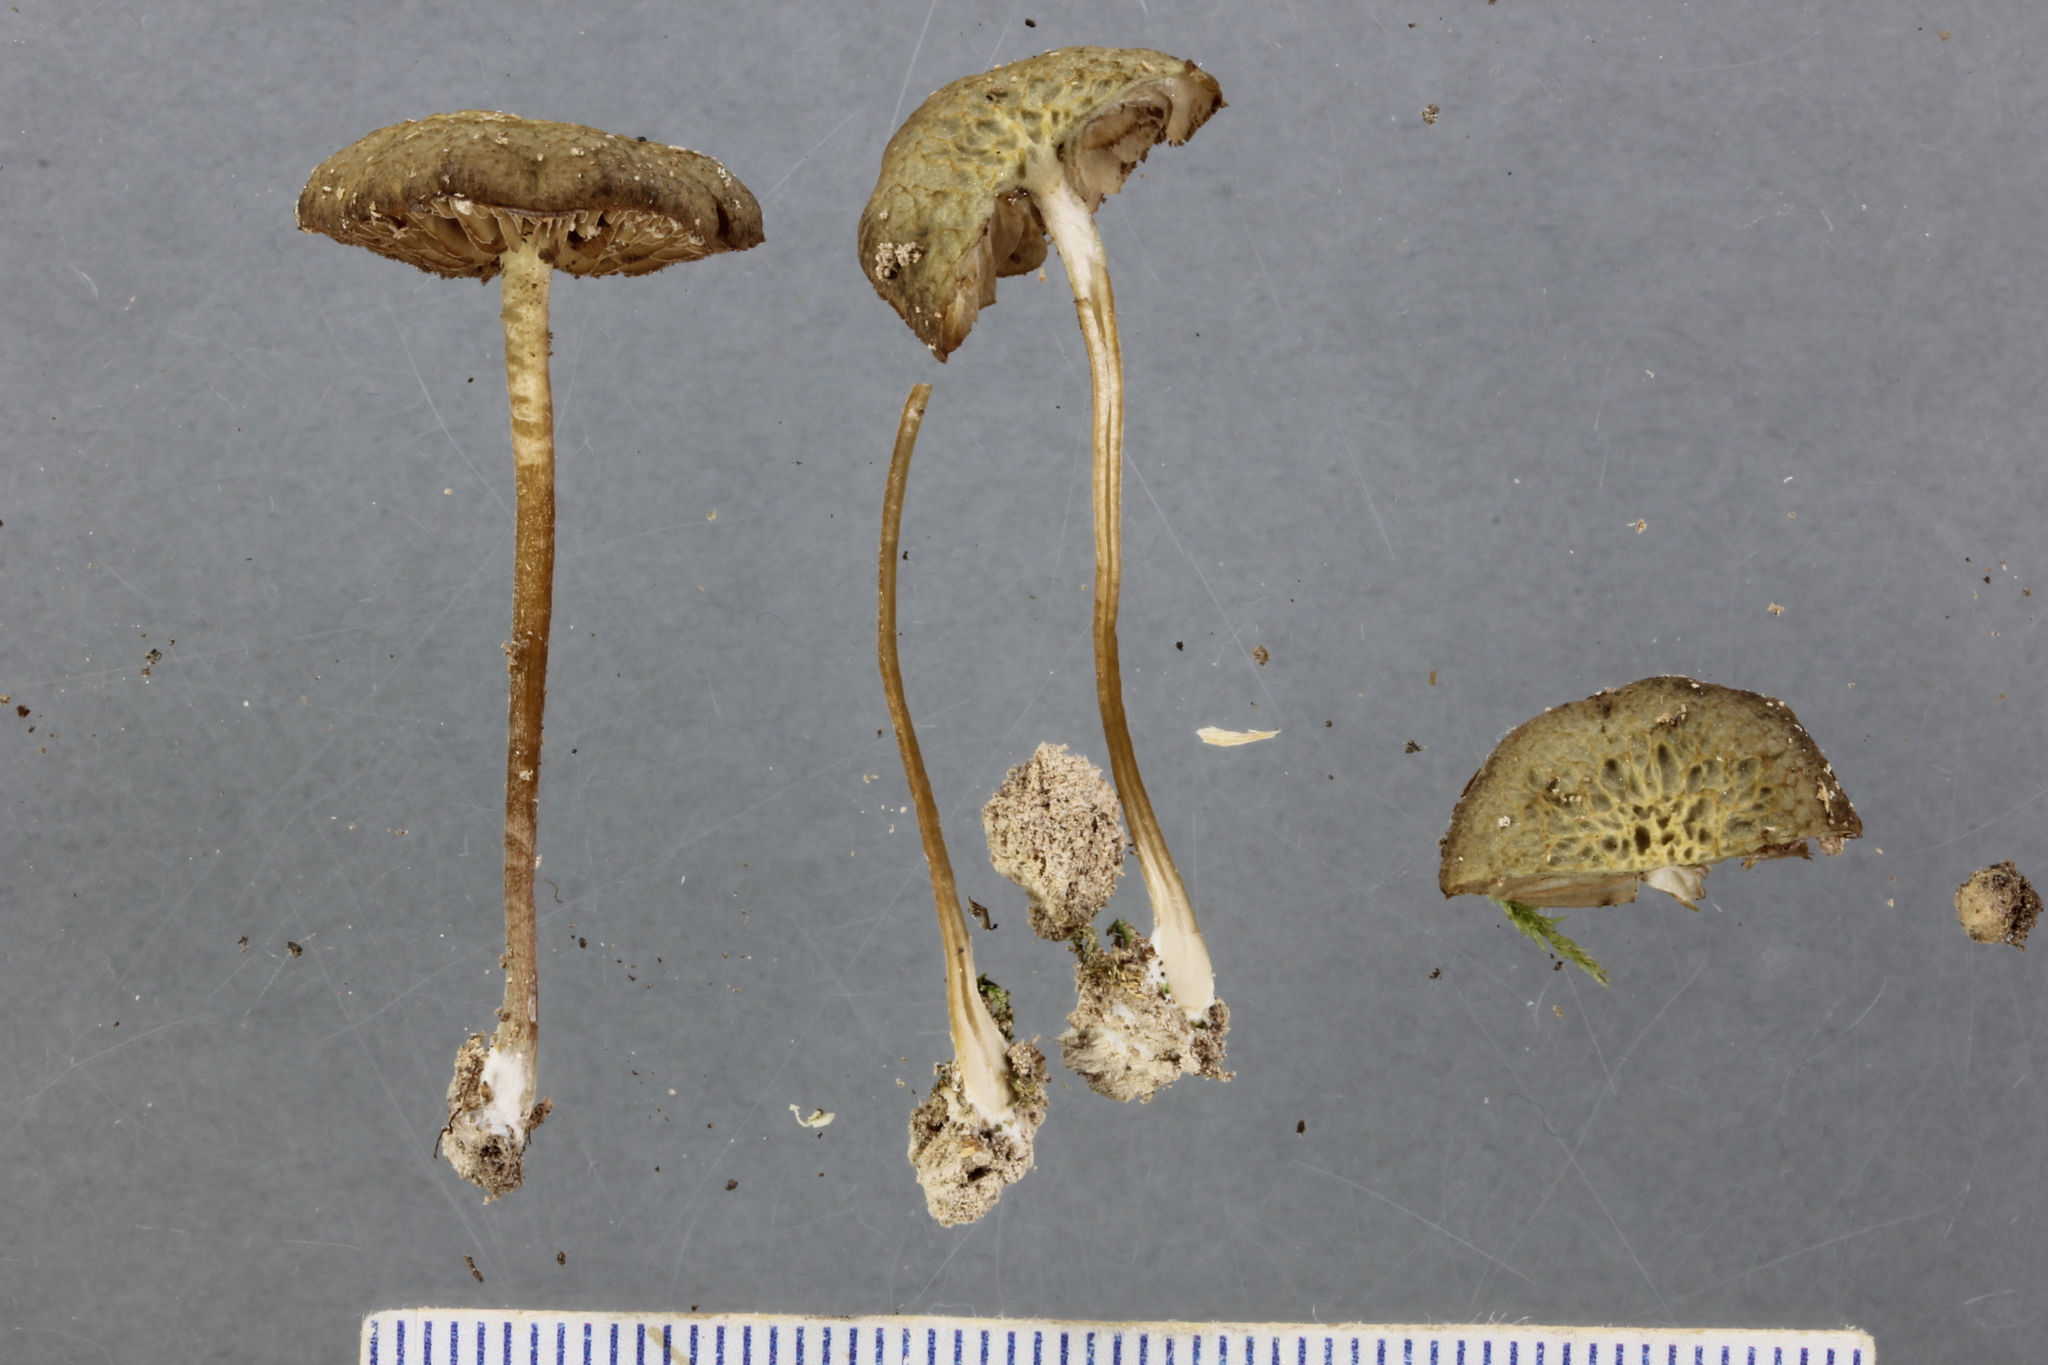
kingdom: Fungi
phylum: Basidiomycota
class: Agaricomycetes
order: Agaricales
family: Crepidotaceae
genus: Simocybe
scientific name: Simocybe phlebophora
